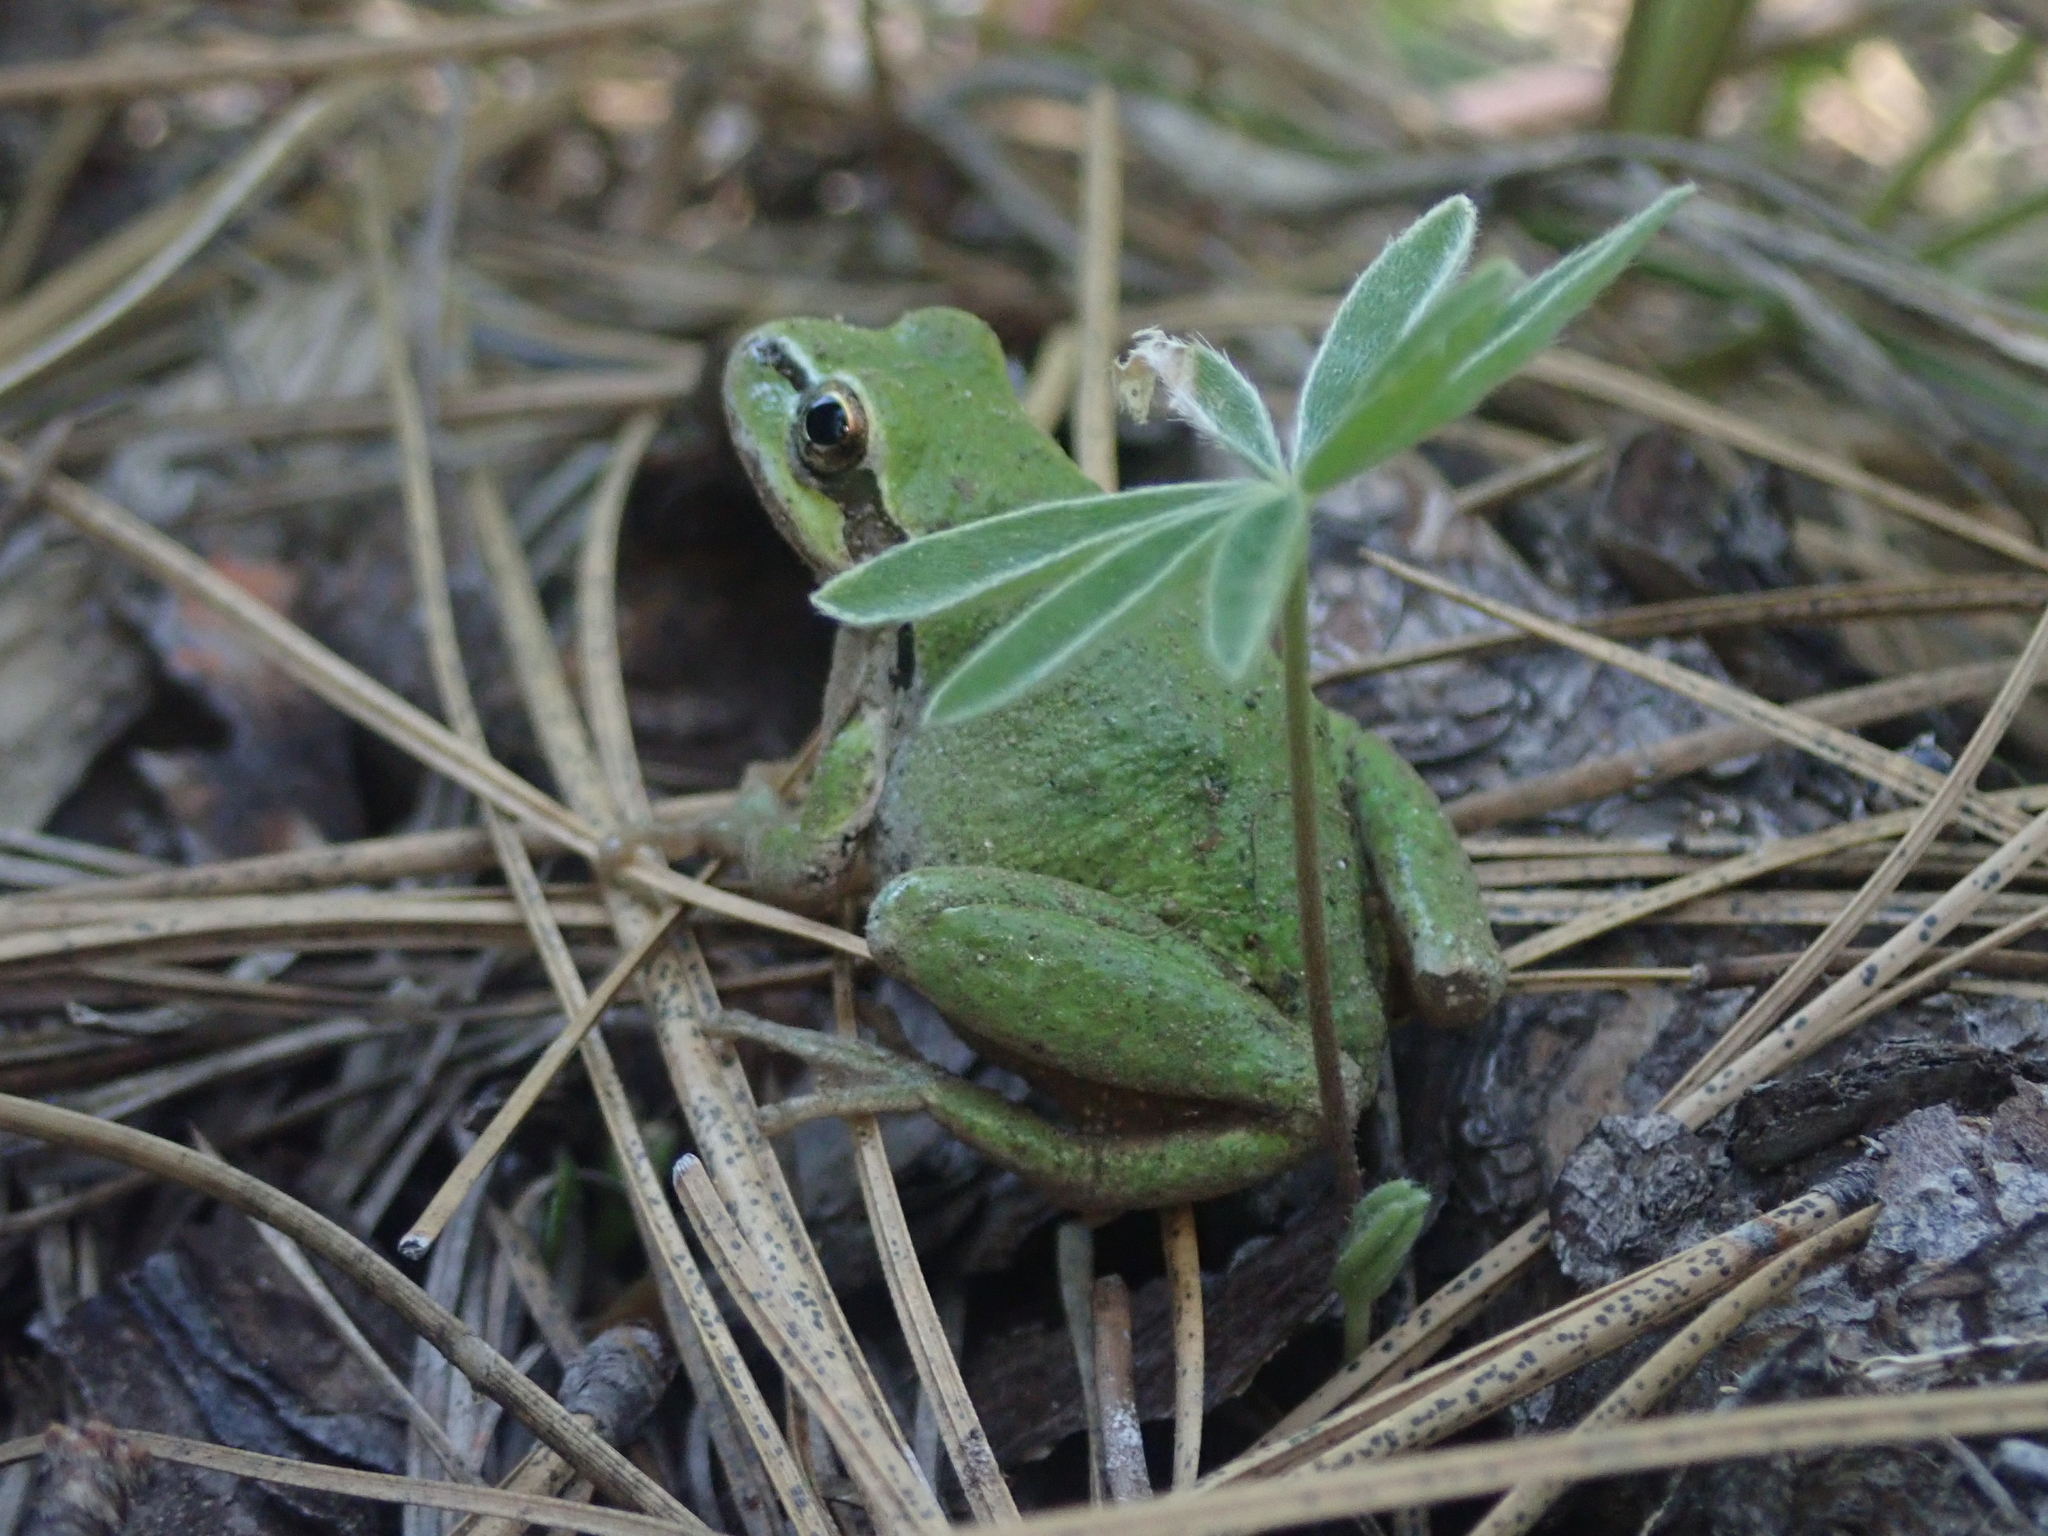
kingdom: Animalia
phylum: Chordata
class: Amphibia
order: Anura
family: Hylidae
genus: Pseudacris
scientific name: Pseudacris regilla
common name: Pacific chorus frog
